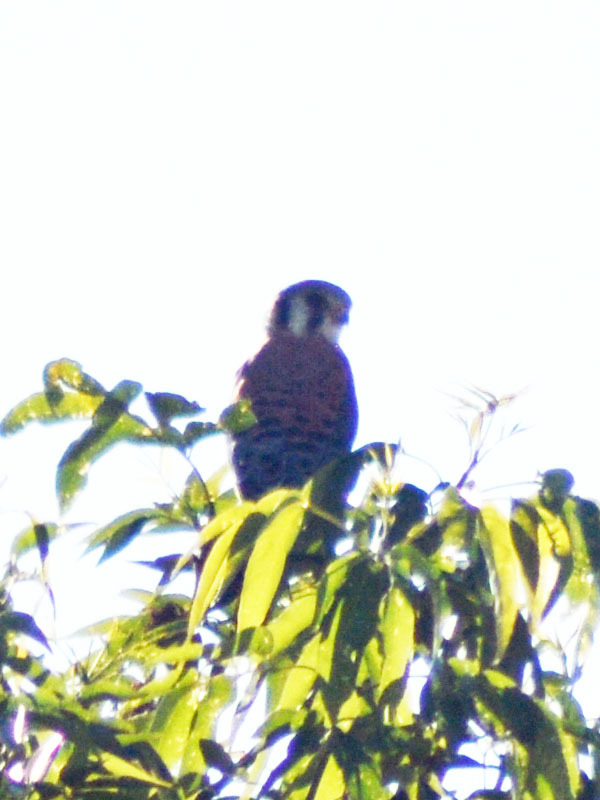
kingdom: Animalia
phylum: Chordata
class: Aves
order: Falconiformes
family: Falconidae
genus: Falco
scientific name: Falco sparverius
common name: American kestrel
